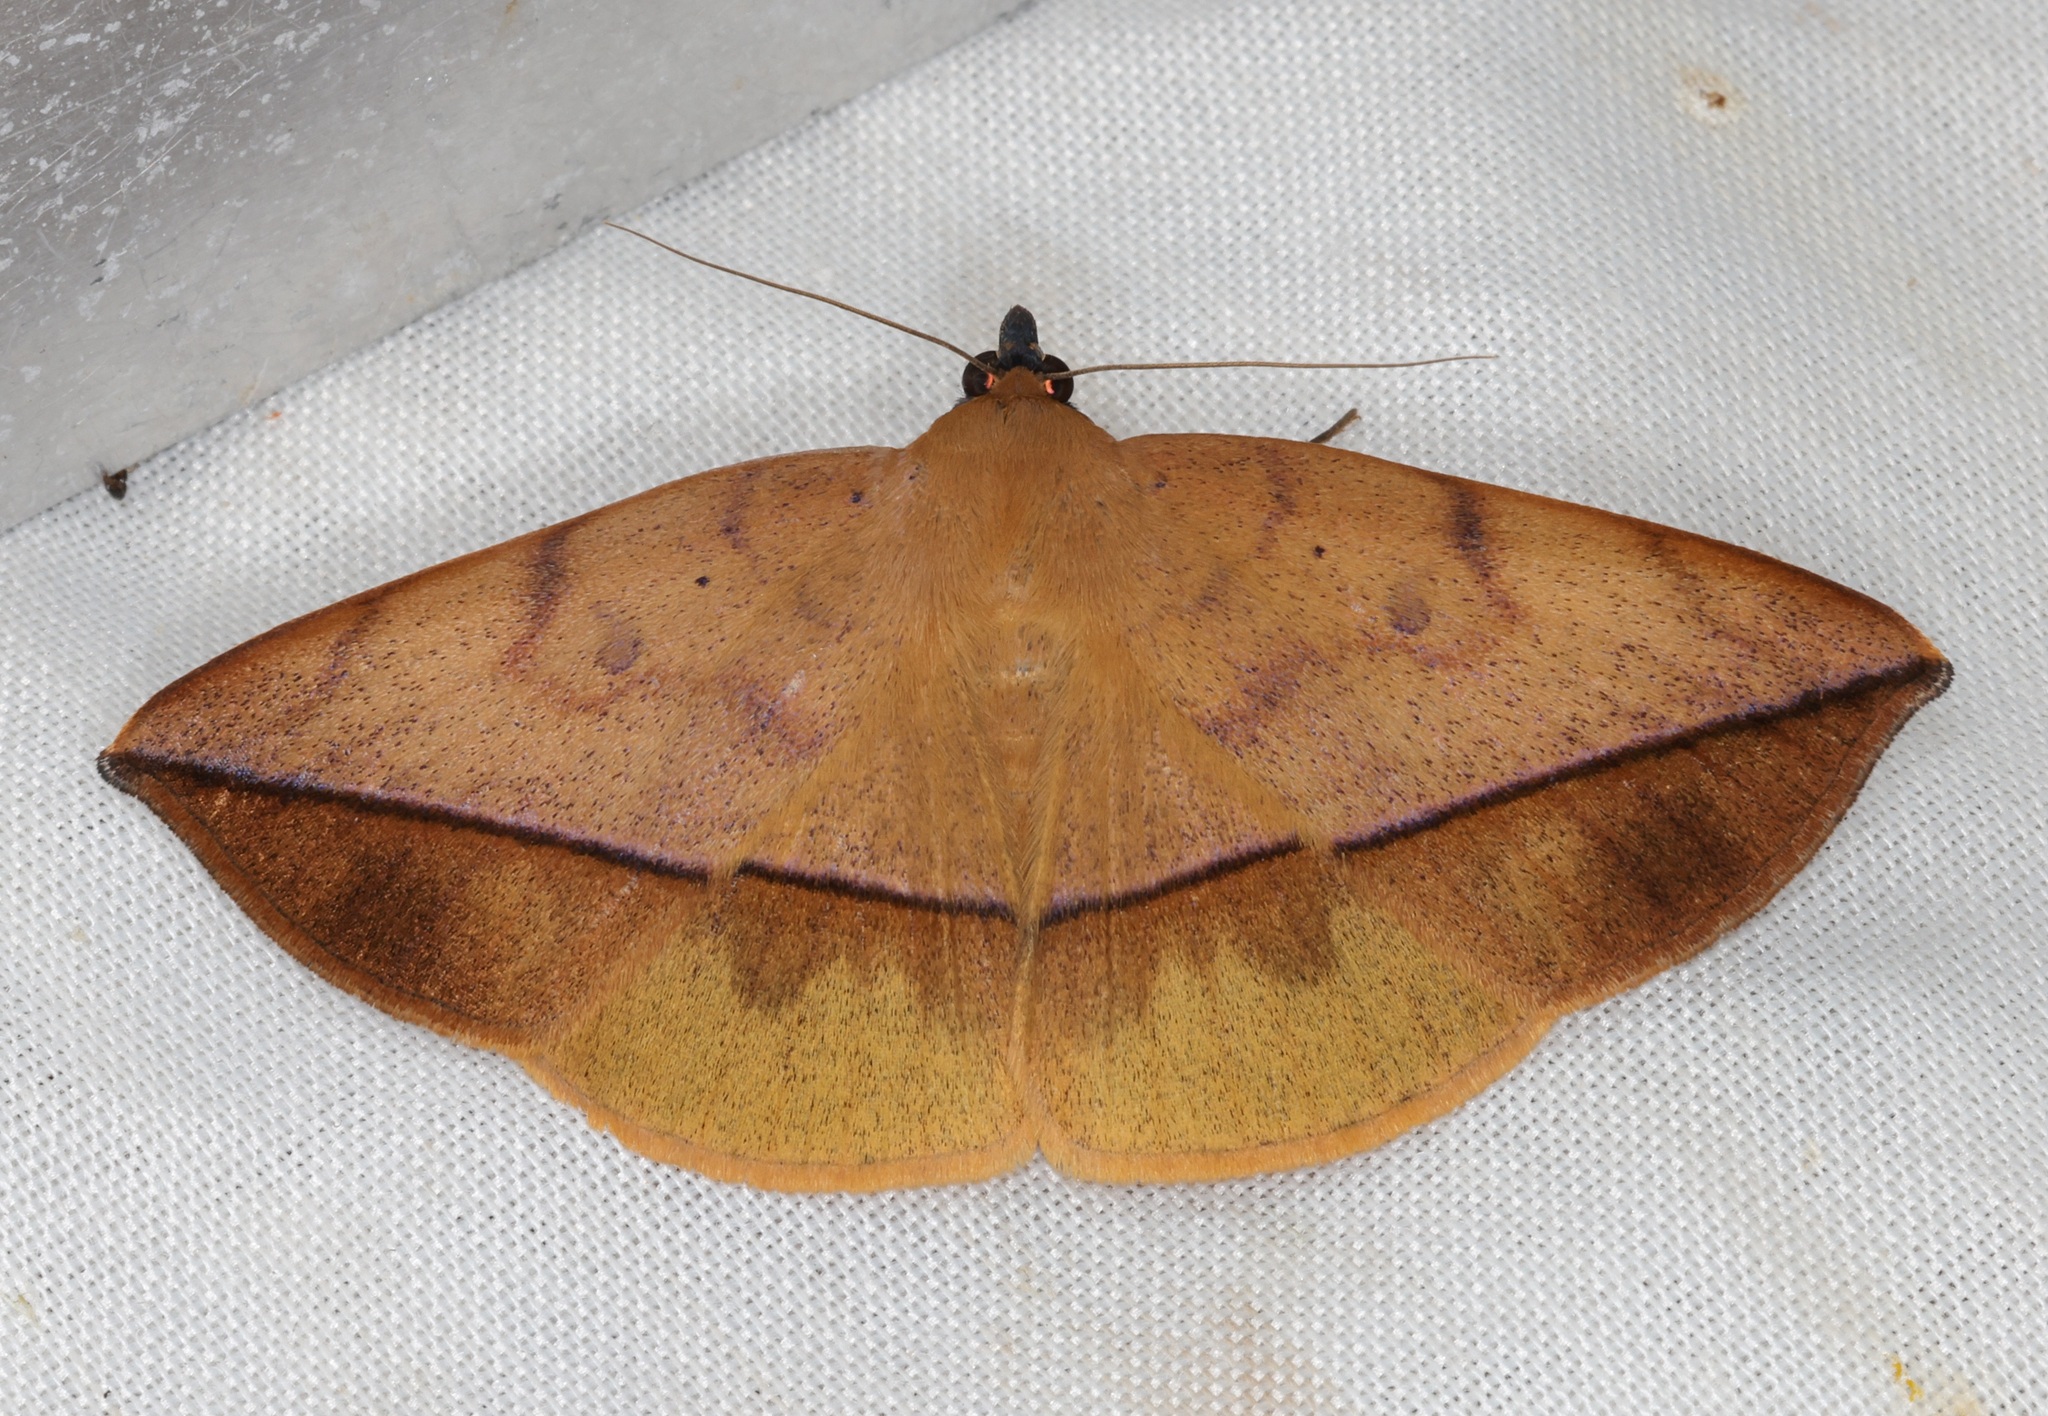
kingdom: Animalia
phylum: Arthropoda
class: Insecta
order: Lepidoptera
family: Erebidae
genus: Hamodes
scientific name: Hamodes pendleburyi
